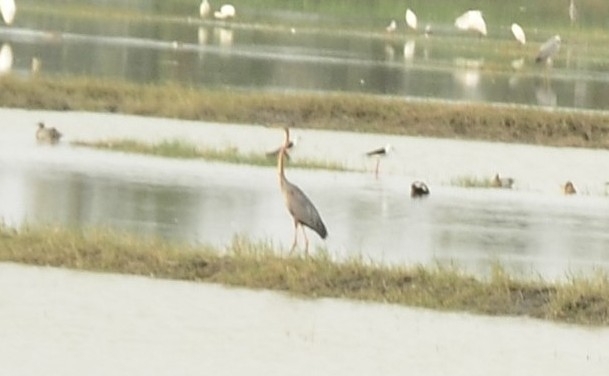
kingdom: Animalia
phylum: Chordata
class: Aves
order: Pelecaniformes
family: Ardeidae
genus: Ardea
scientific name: Ardea purpurea
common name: Purple heron
